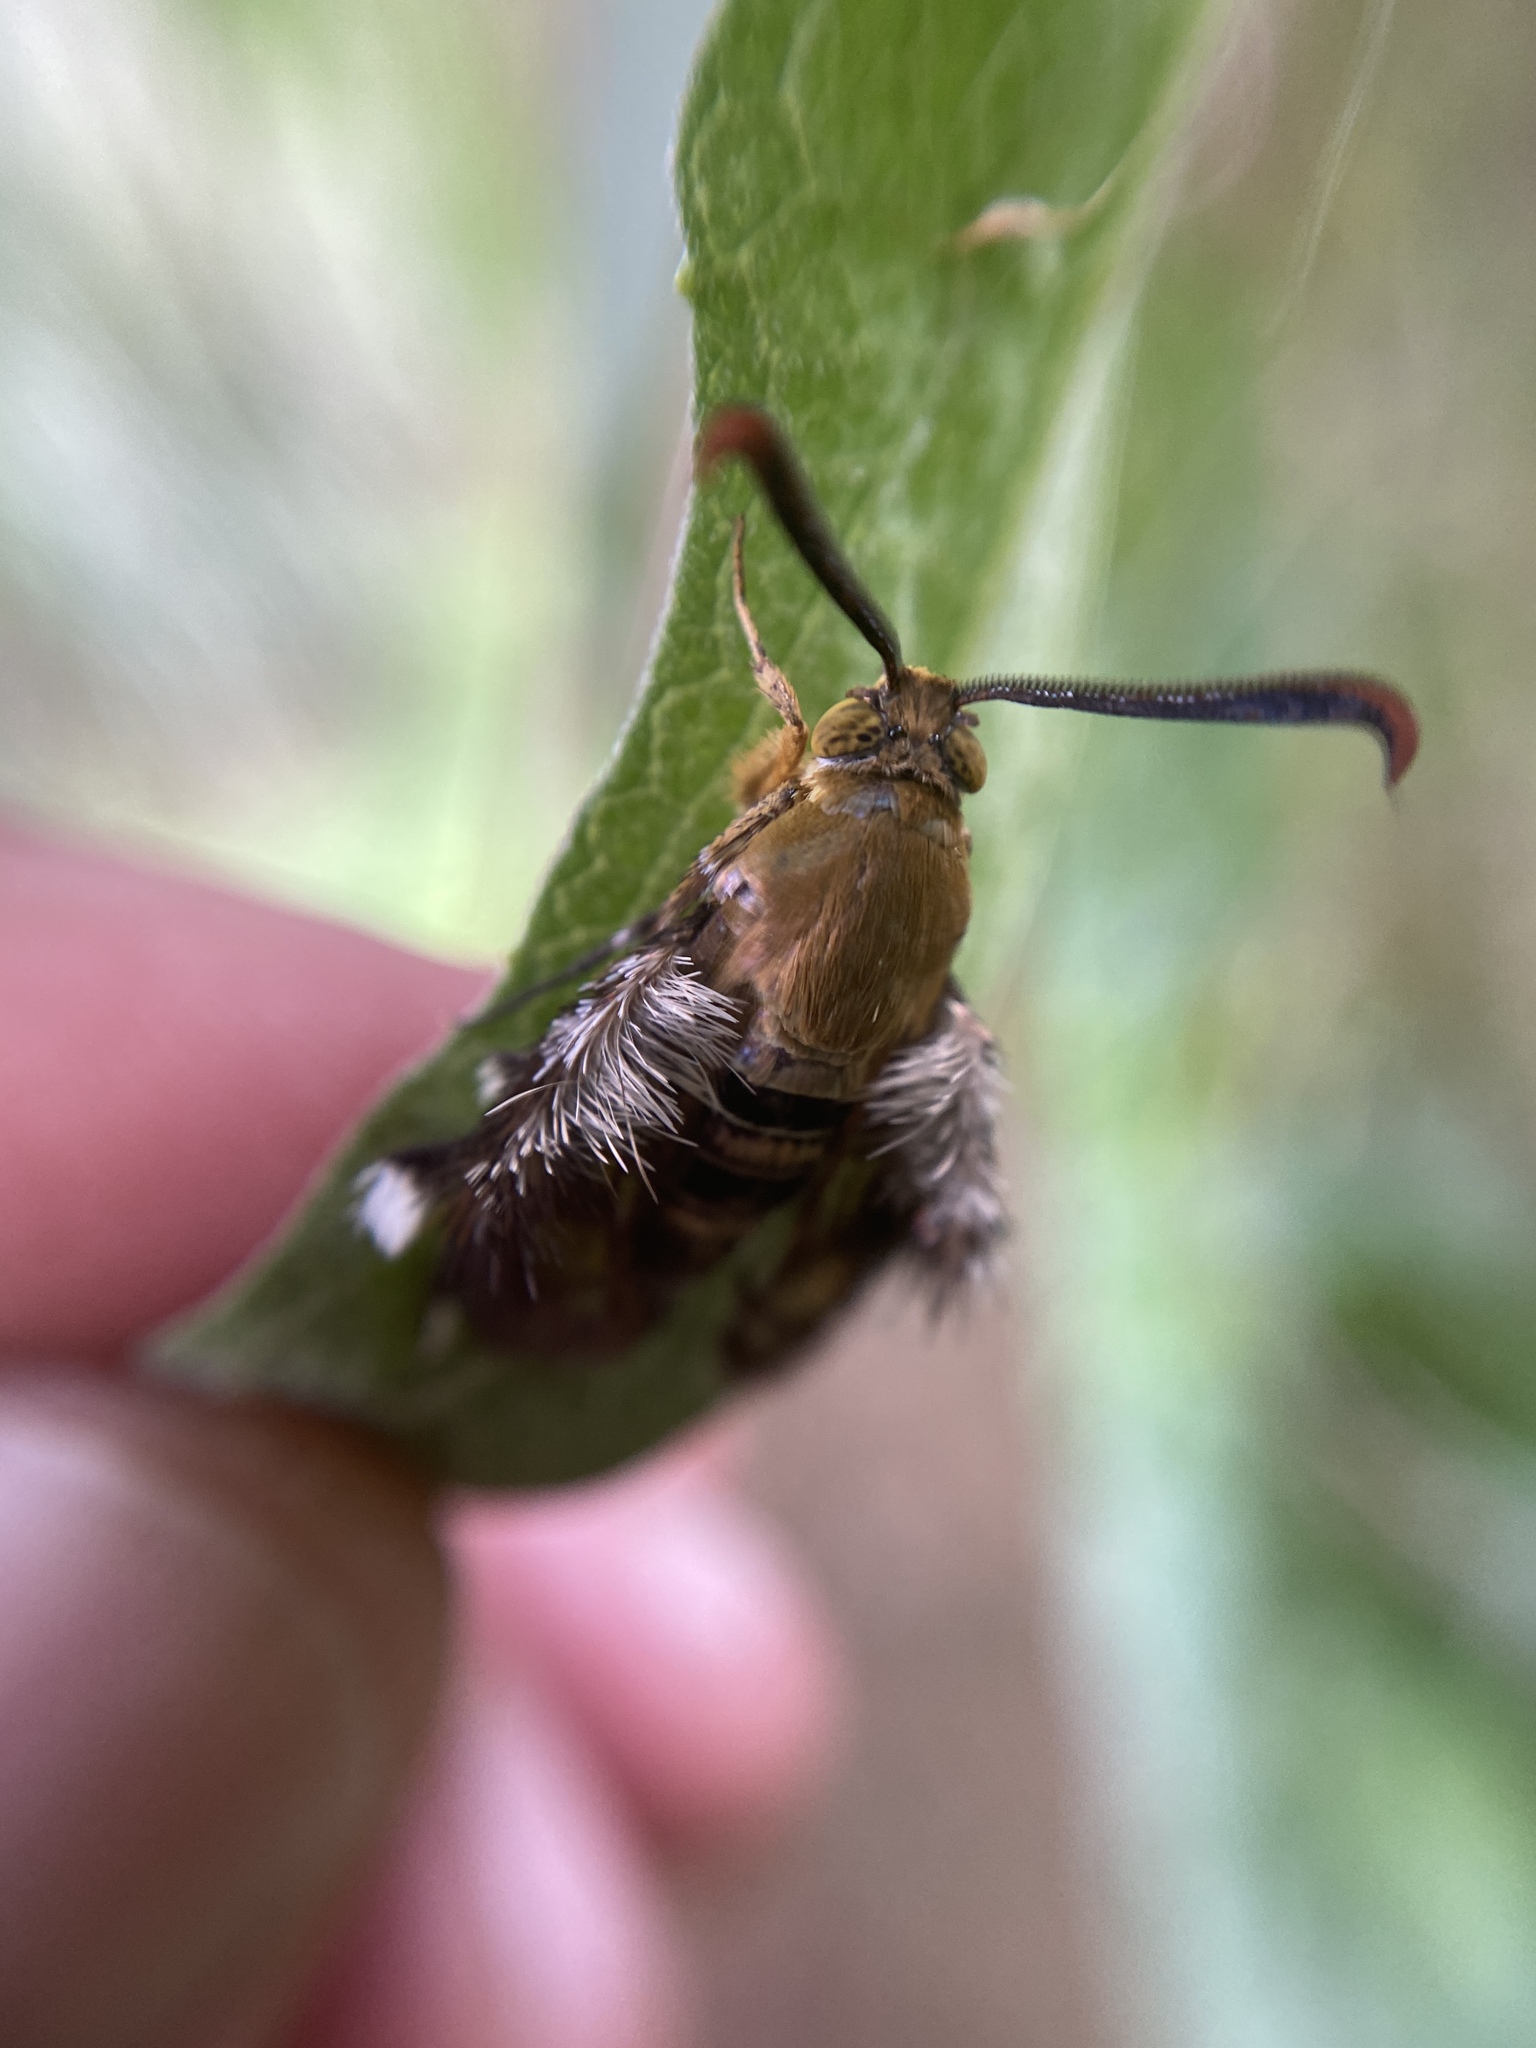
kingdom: Animalia
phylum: Arthropoda
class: Insecta
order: Lepidoptera
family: Sesiidae
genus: Melittia
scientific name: Melittia powelli
